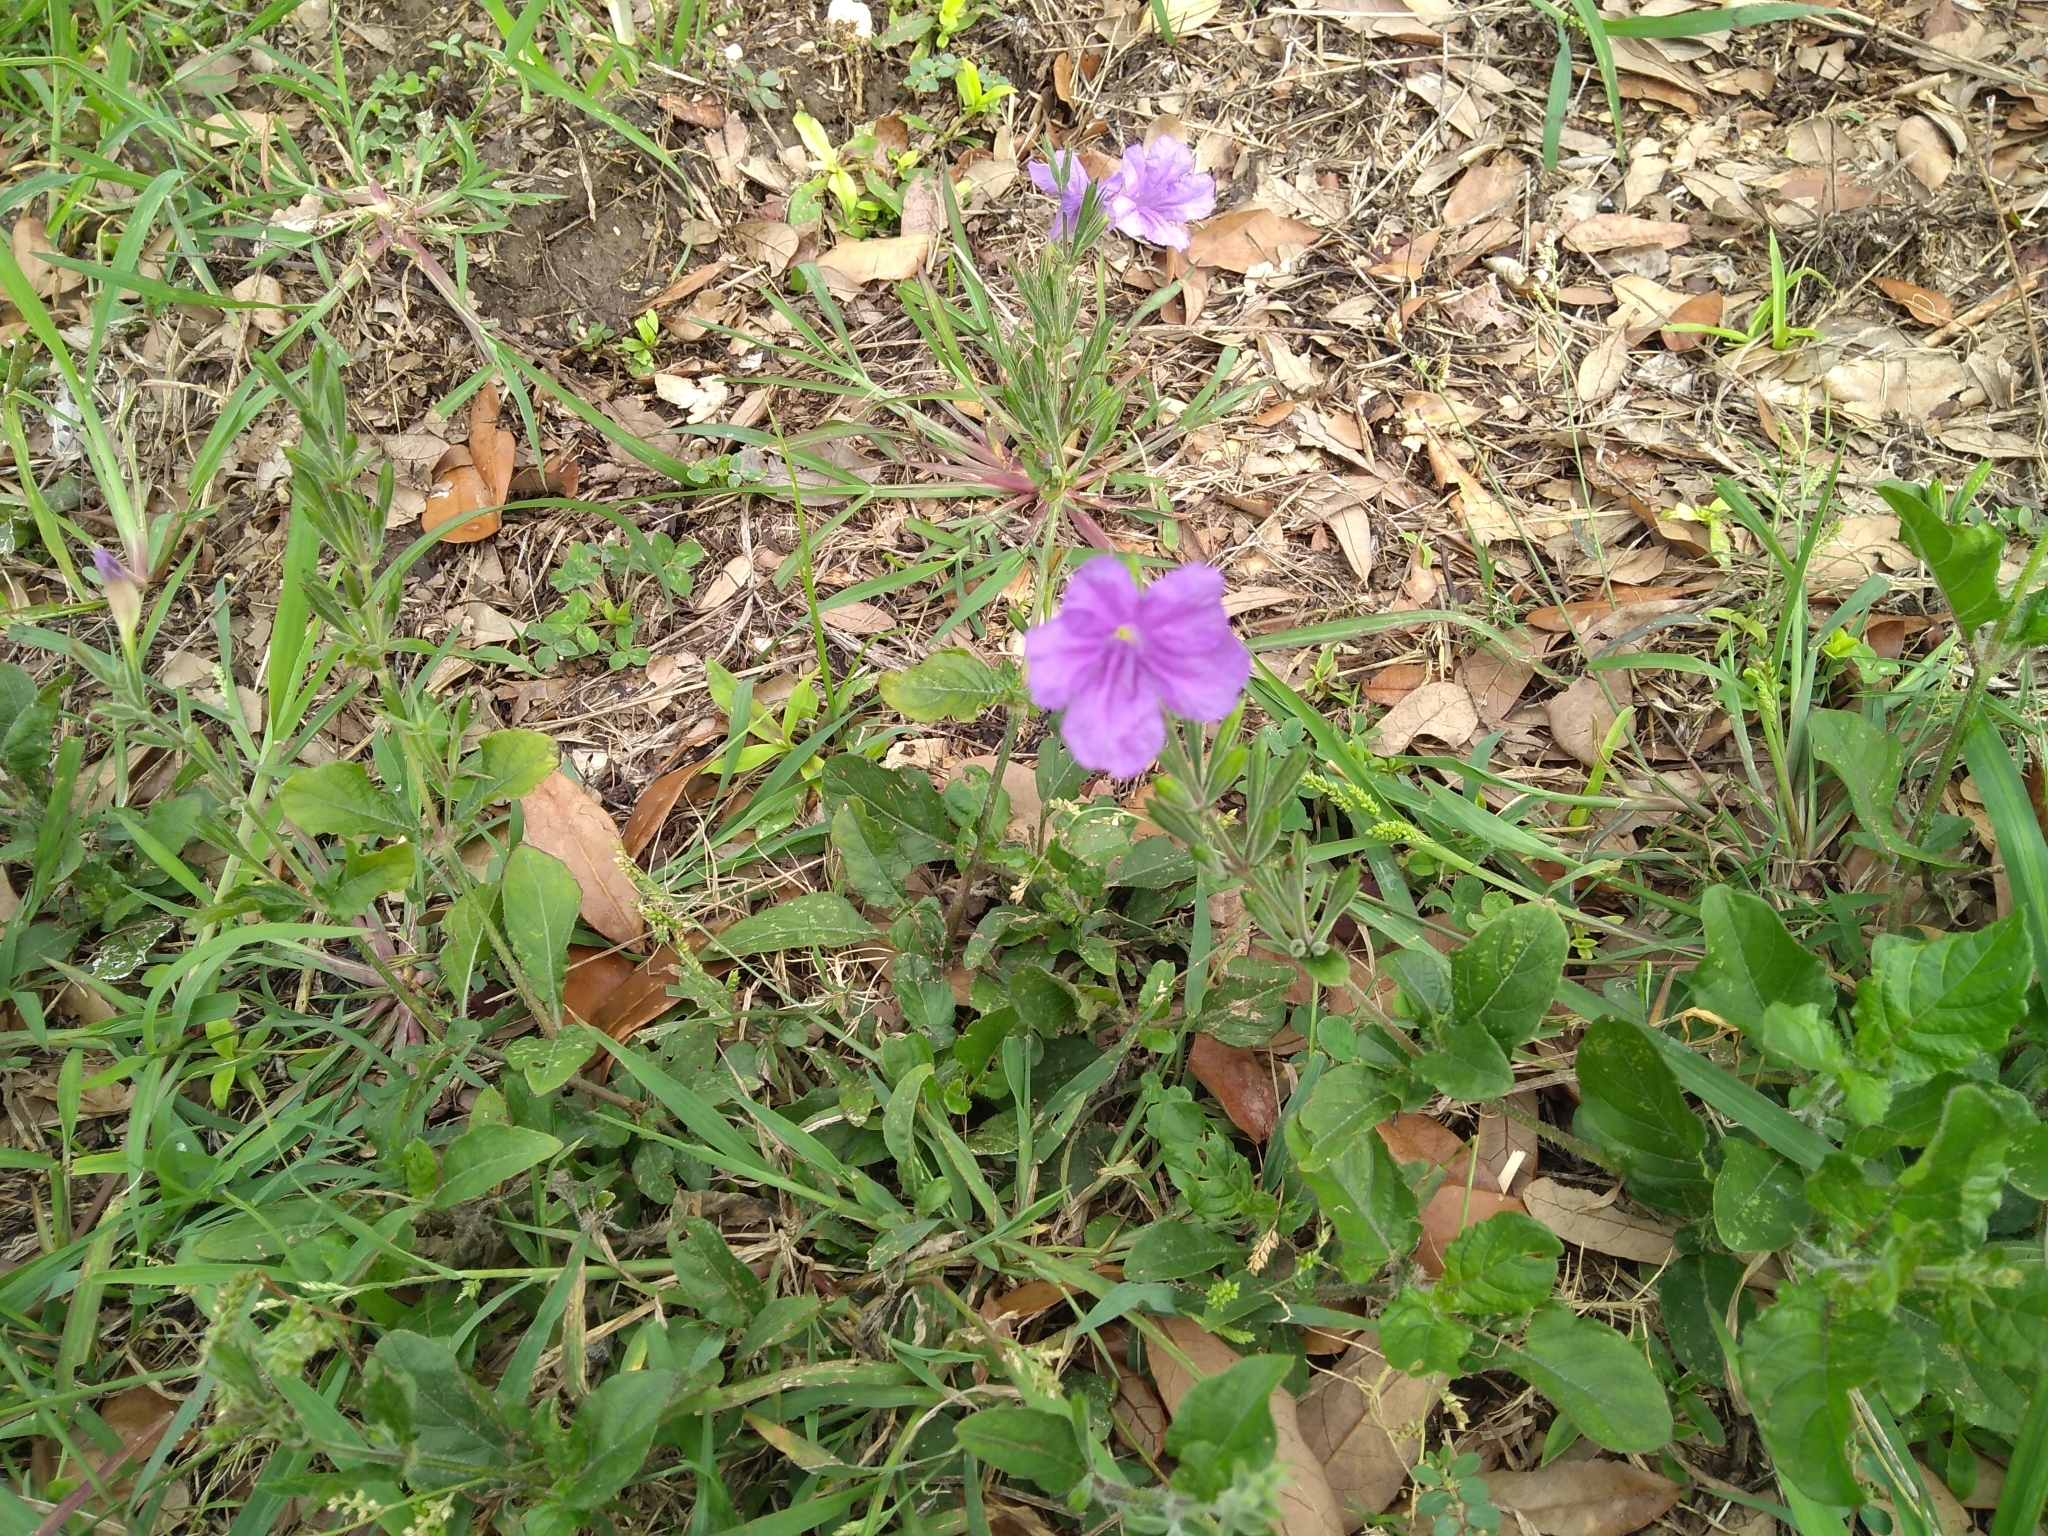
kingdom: Plantae
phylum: Tracheophyta
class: Magnoliopsida
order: Lamiales
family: Acanthaceae
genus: Ruellia
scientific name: Ruellia ciliatiflora
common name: Hairyflower wild petunia
